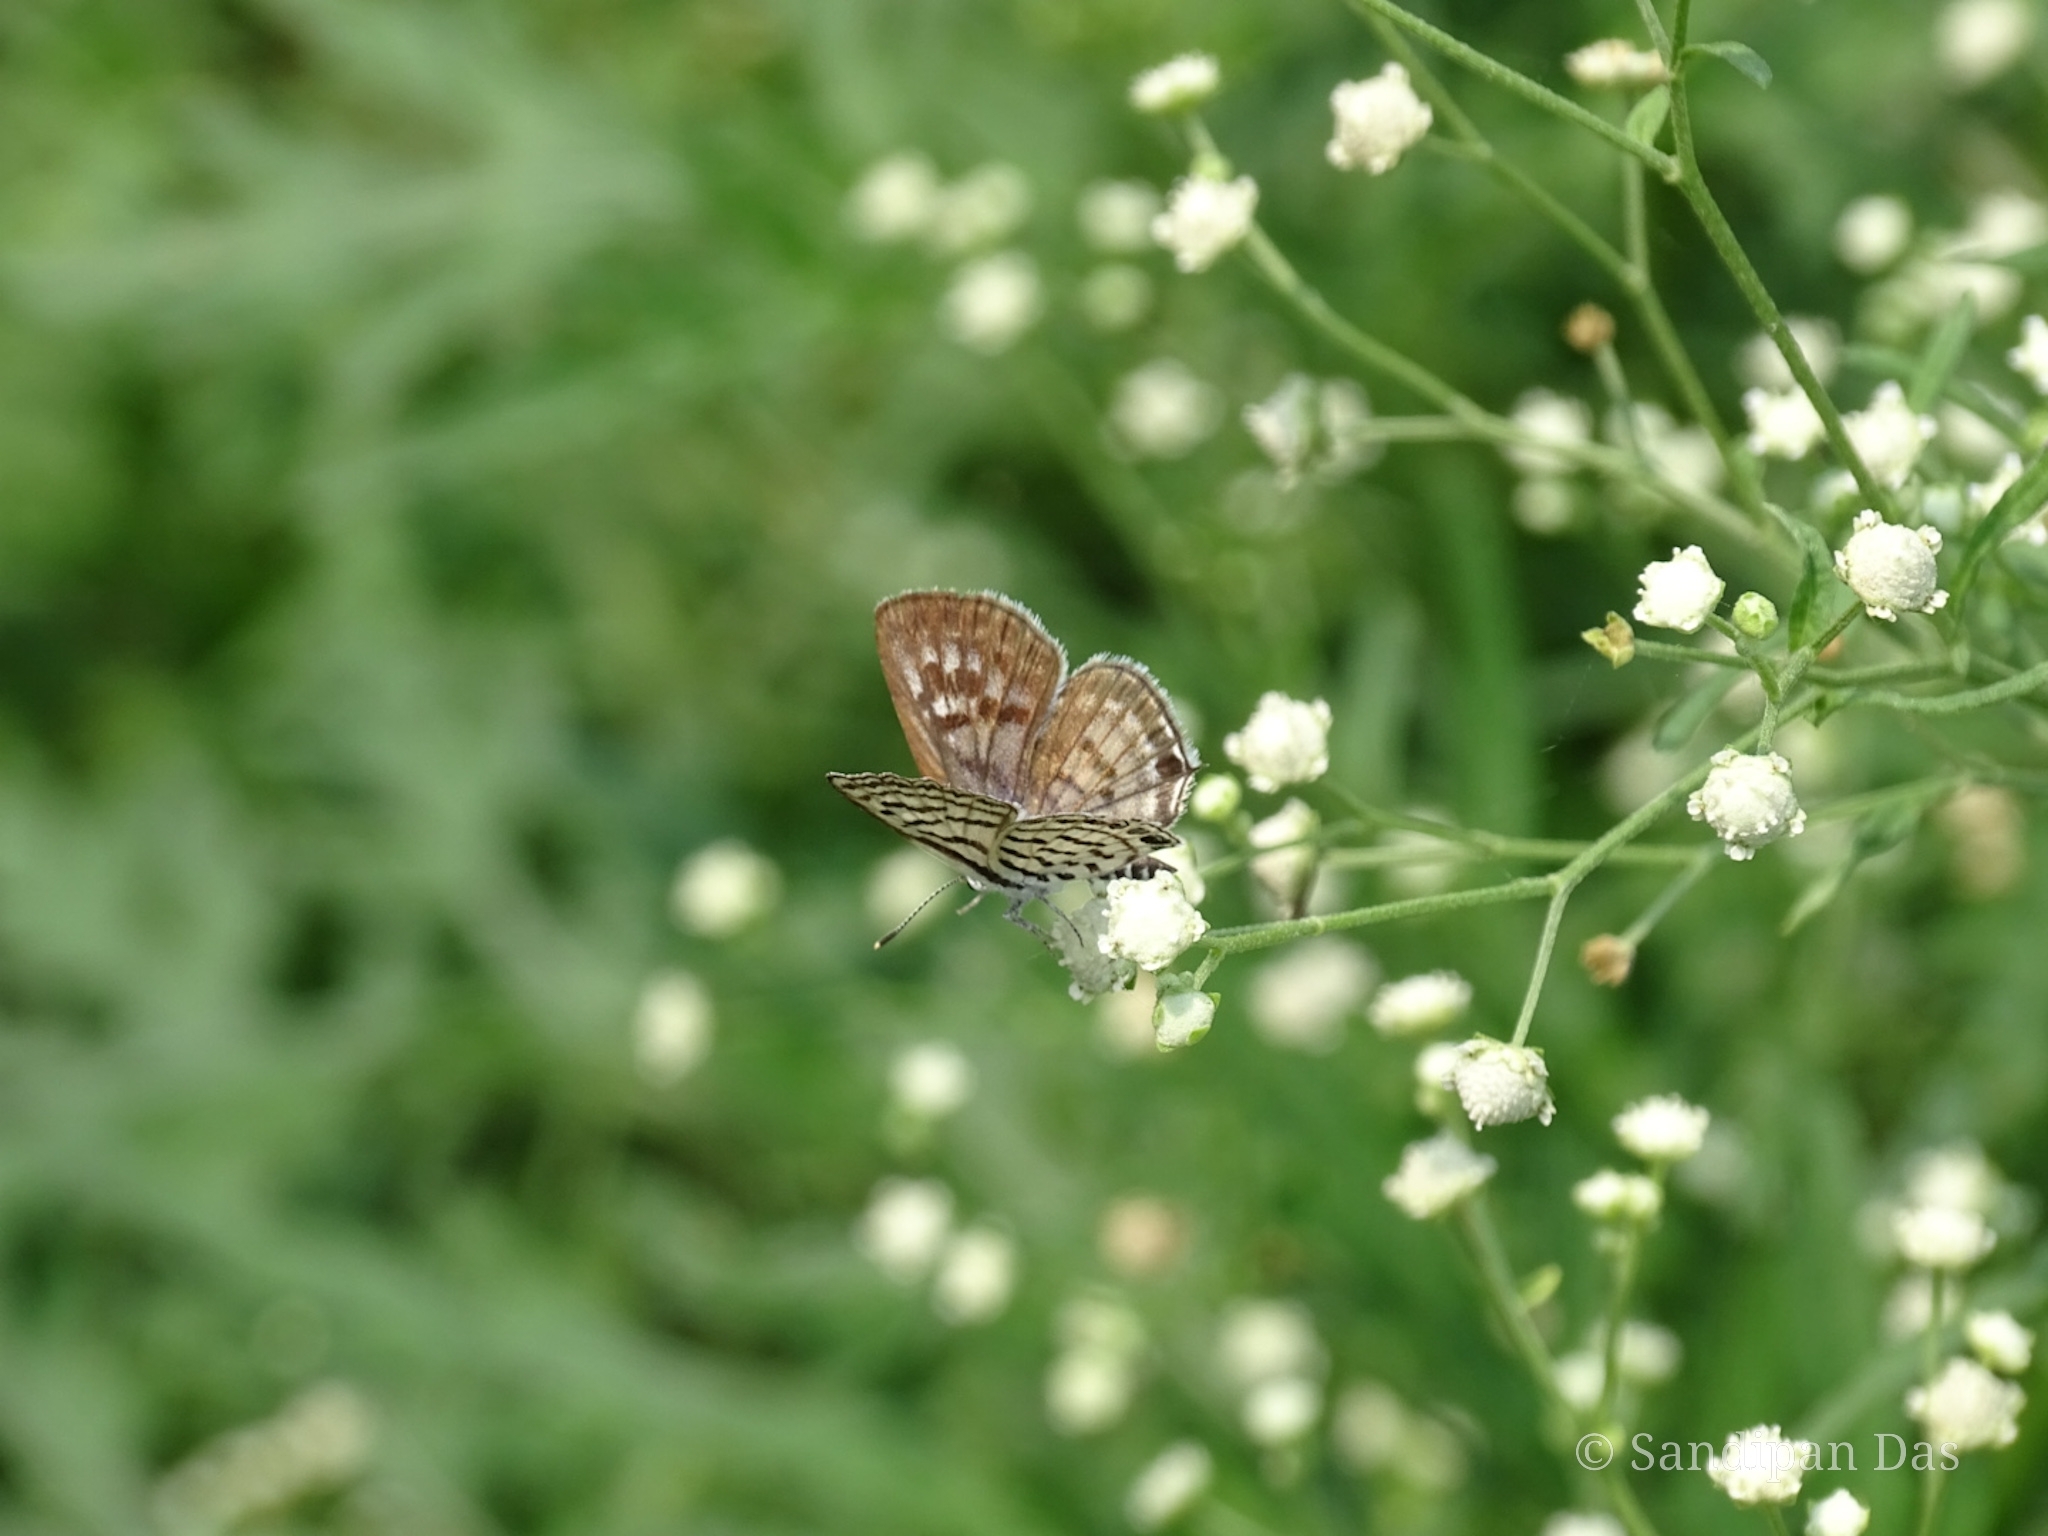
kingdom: Animalia
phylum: Arthropoda
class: Insecta
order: Lepidoptera
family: Lycaenidae
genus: Tarucus
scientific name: Tarucus nara
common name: Striped pierrot
